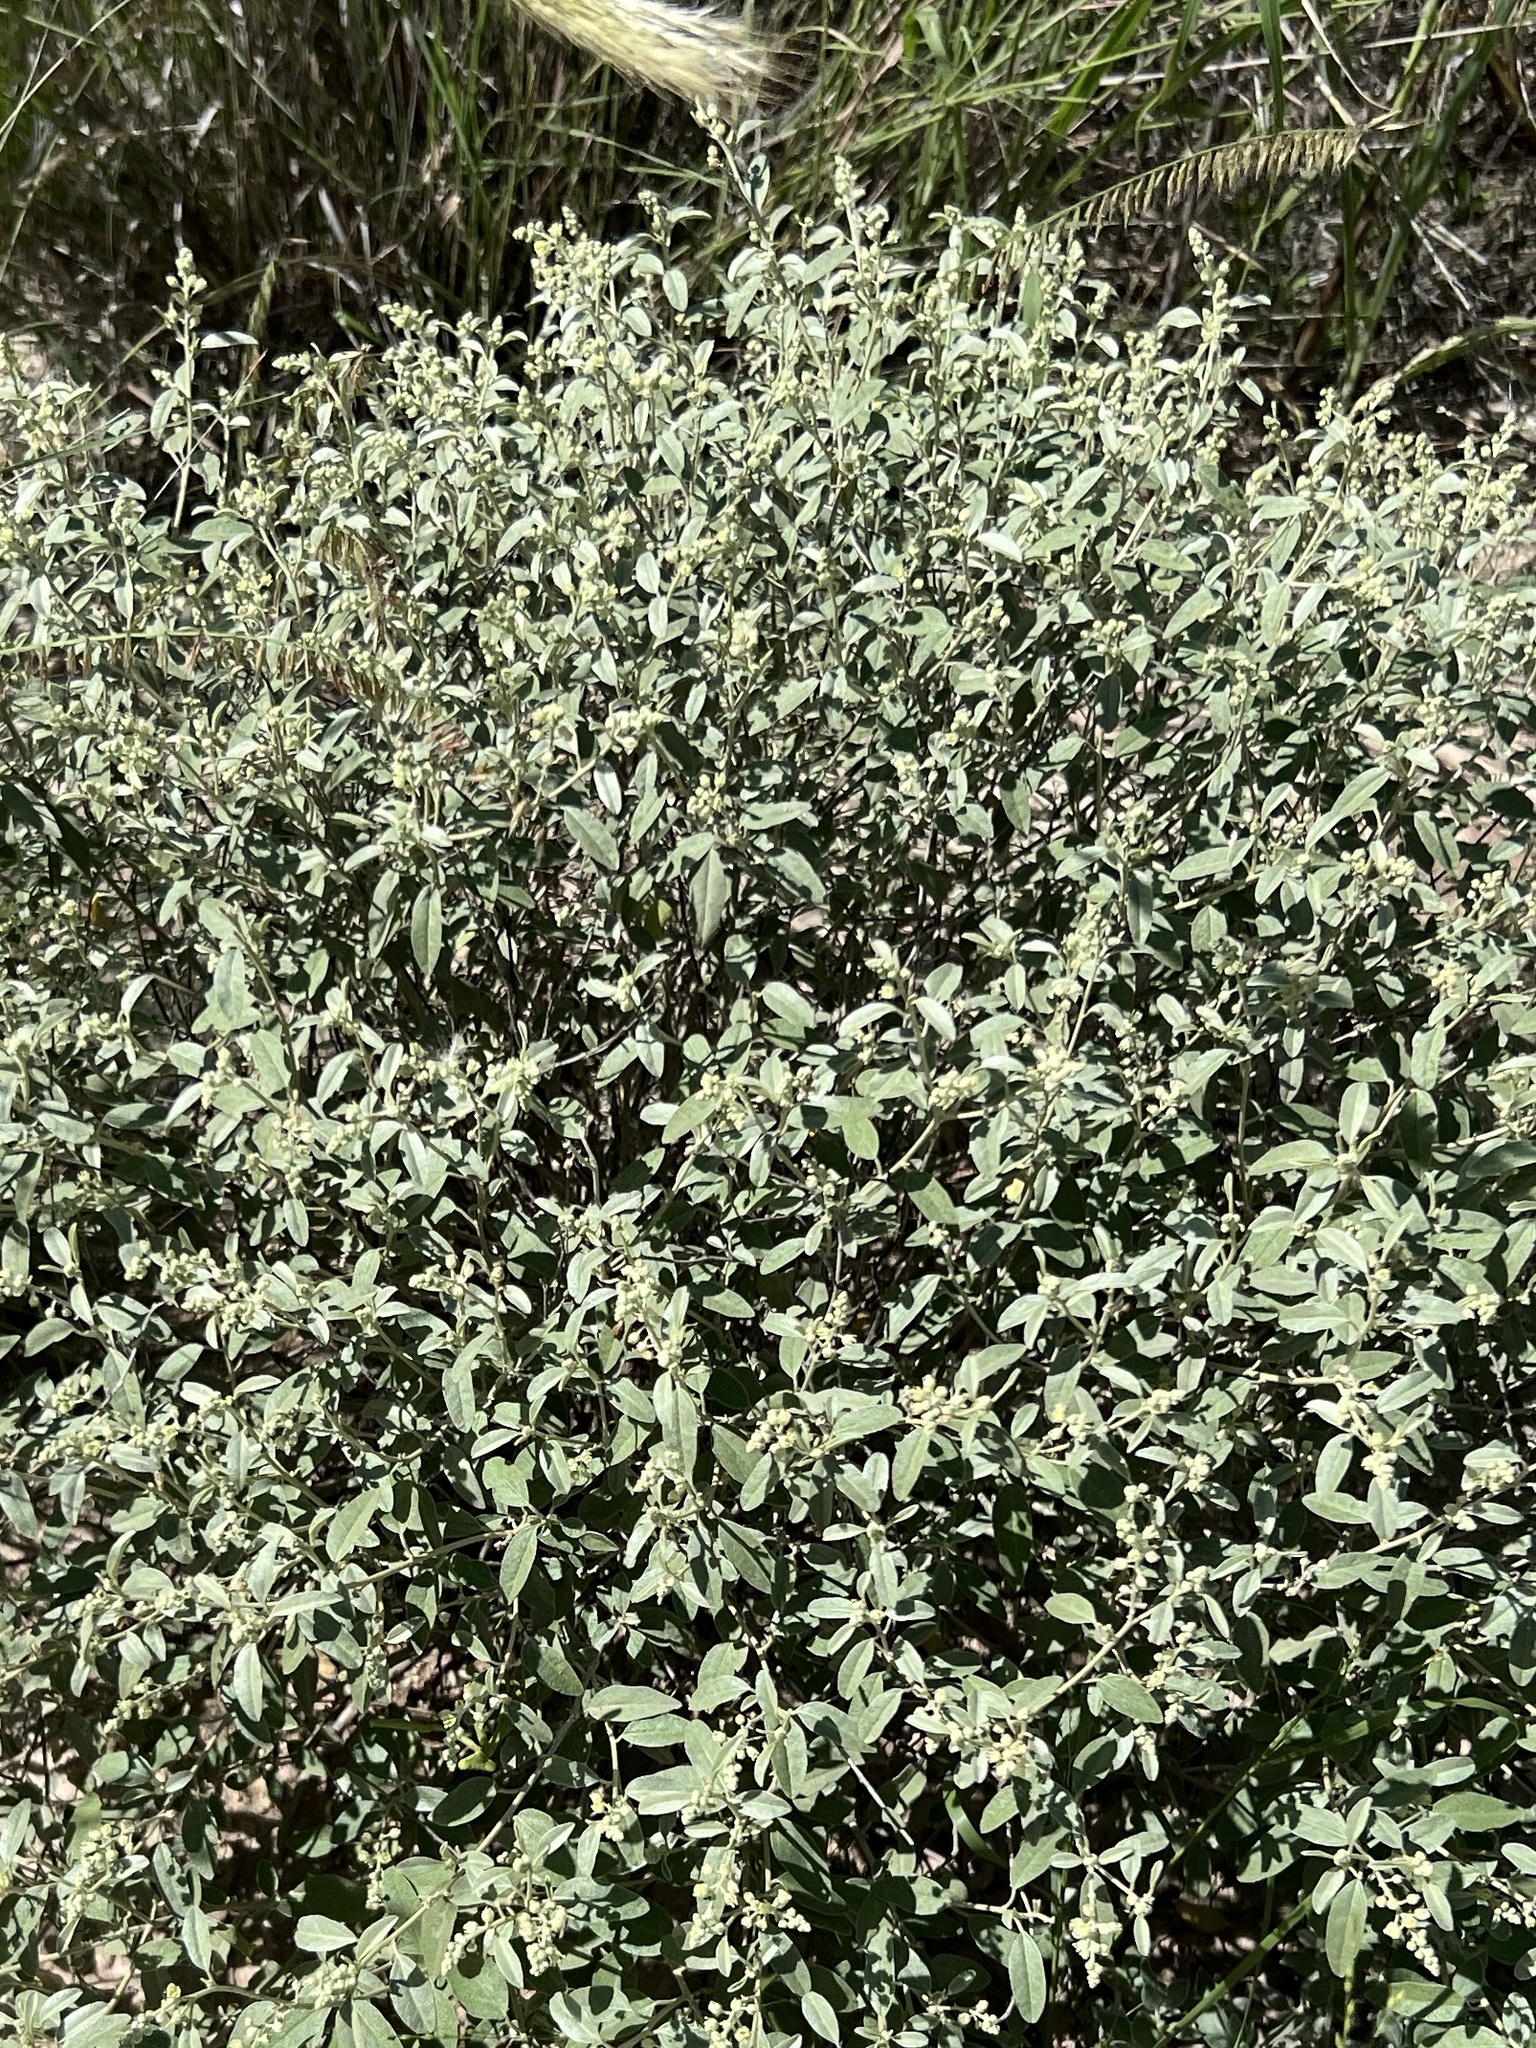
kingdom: Plantae
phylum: Tracheophyta
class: Magnoliopsida
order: Malpighiales
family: Euphorbiaceae
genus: Croton
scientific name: Croton dioicus
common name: Grassland croton
